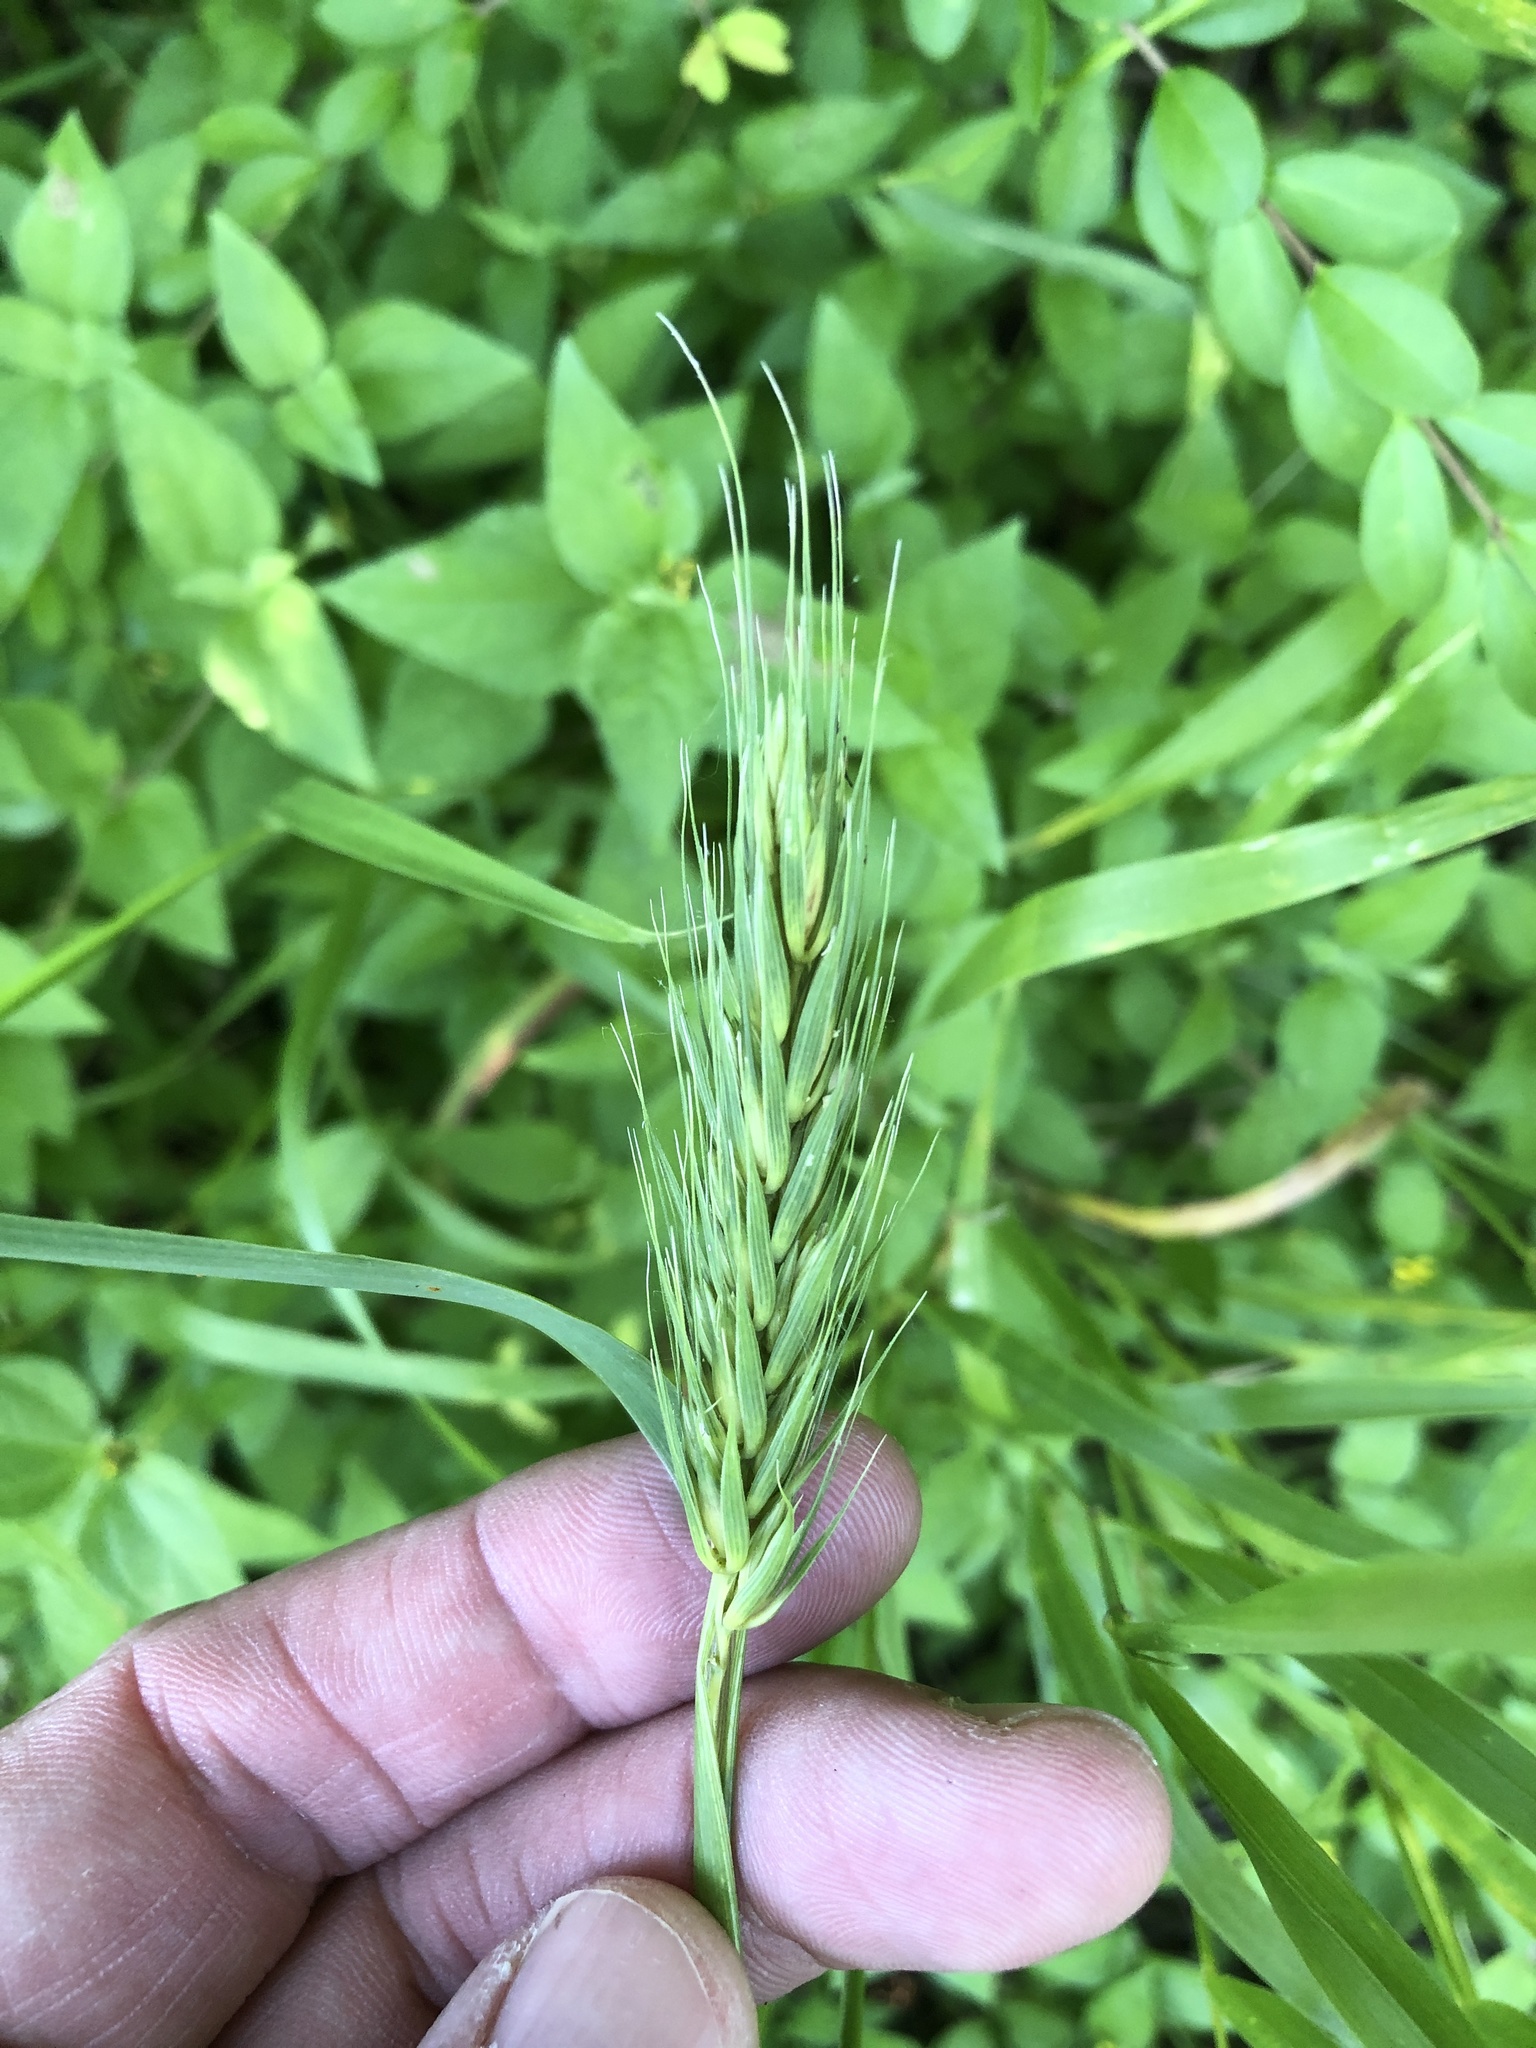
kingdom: Plantae
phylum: Tracheophyta
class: Liliopsida
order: Poales
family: Poaceae
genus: Elymus
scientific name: Elymus virginicus
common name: Common eastern wildrye
